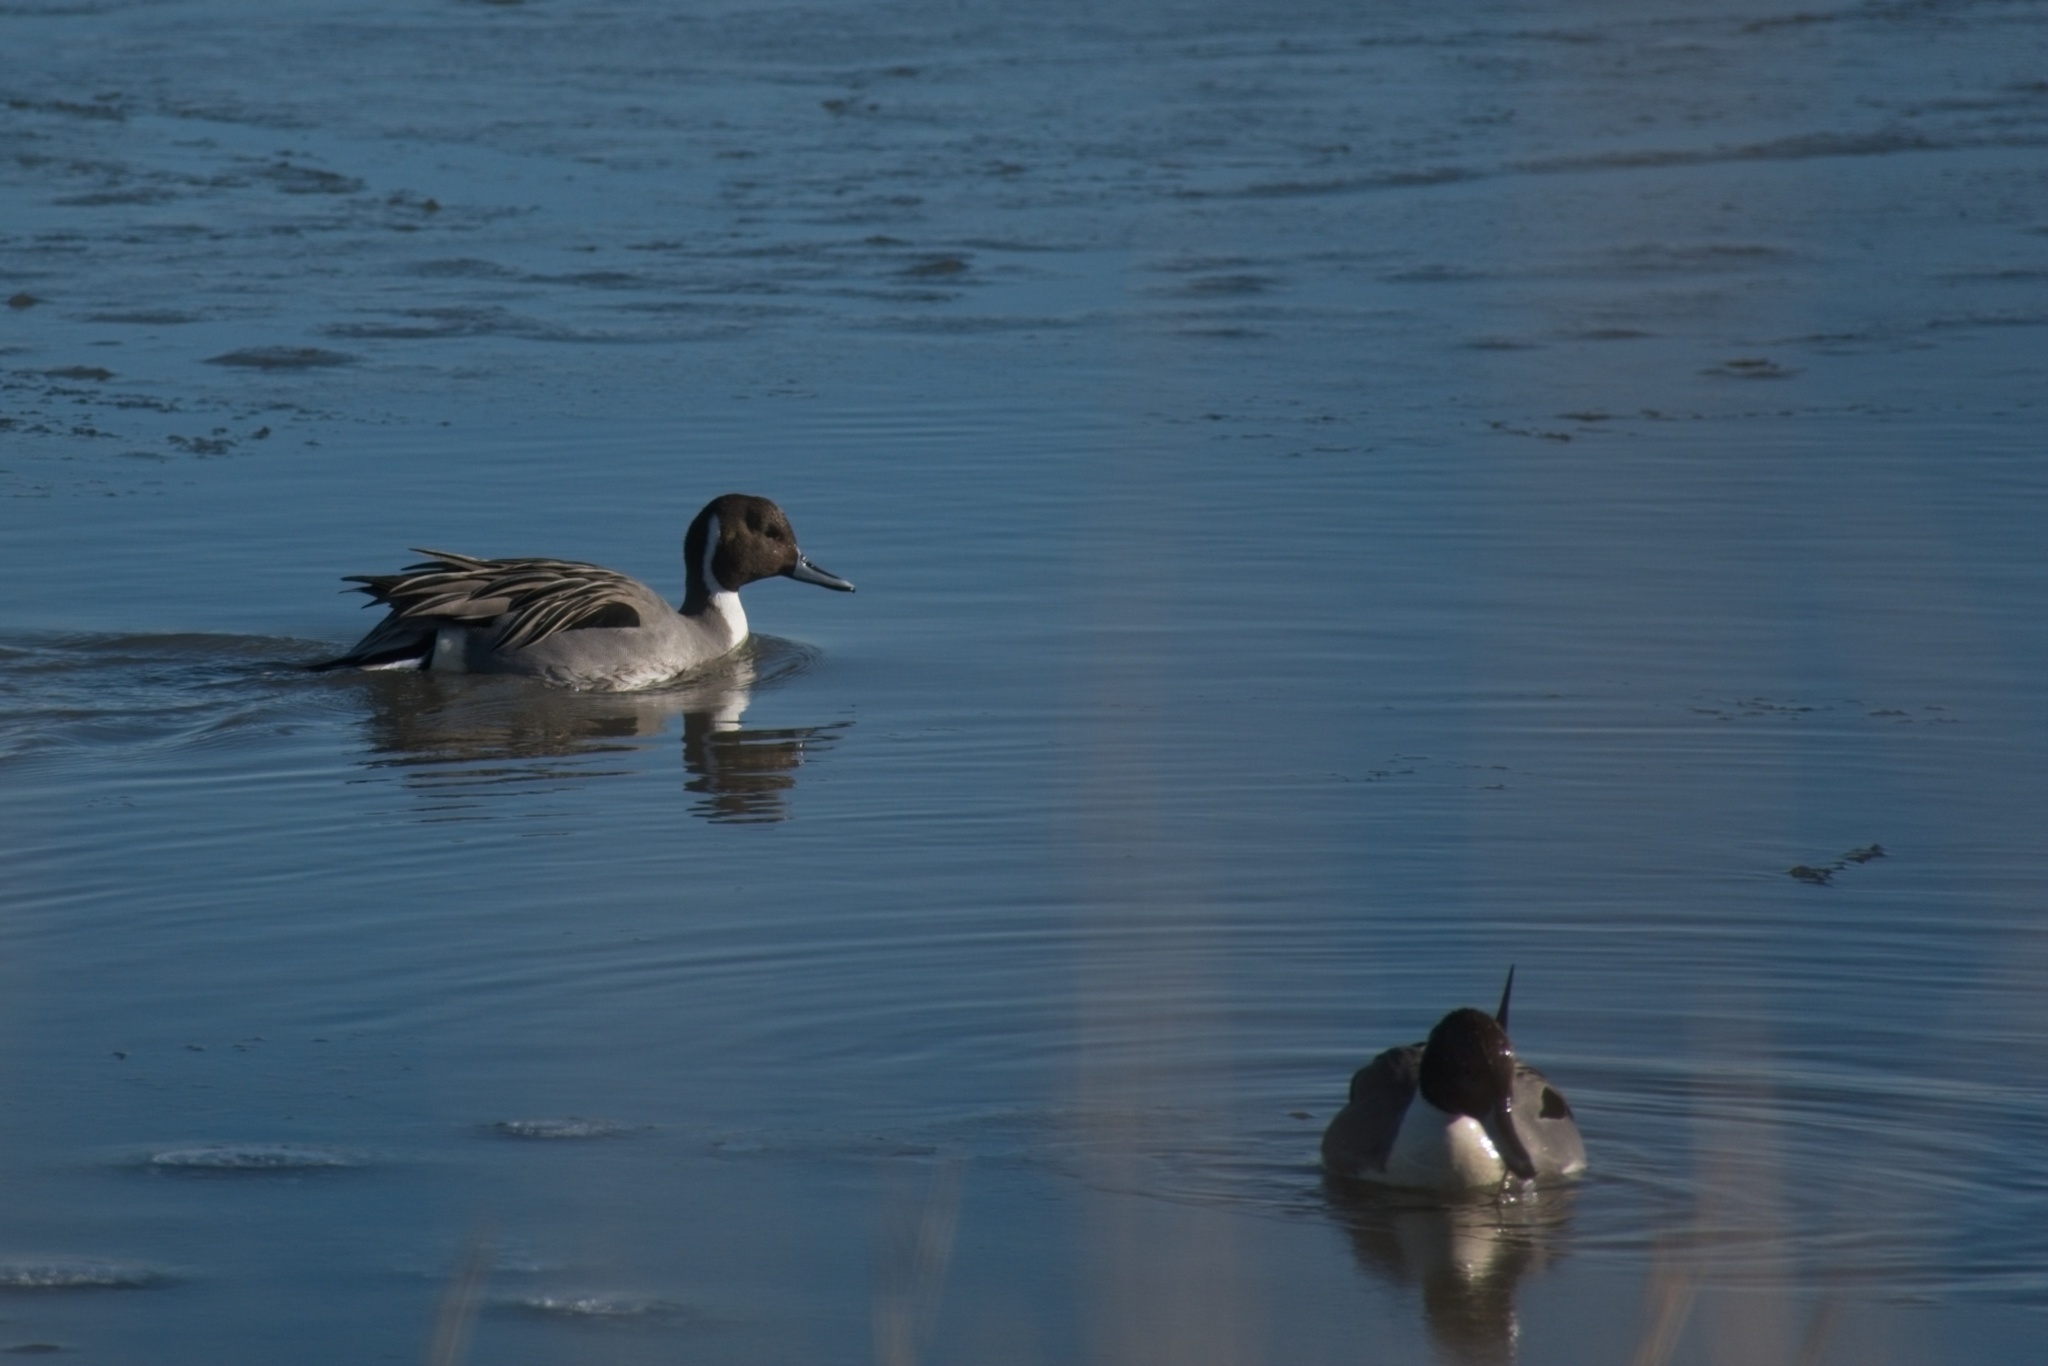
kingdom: Animalia
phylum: Chordata
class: Aves
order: Anseriformes
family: Anatidae
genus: Anas
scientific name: Anas acuta
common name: Northern pintail
